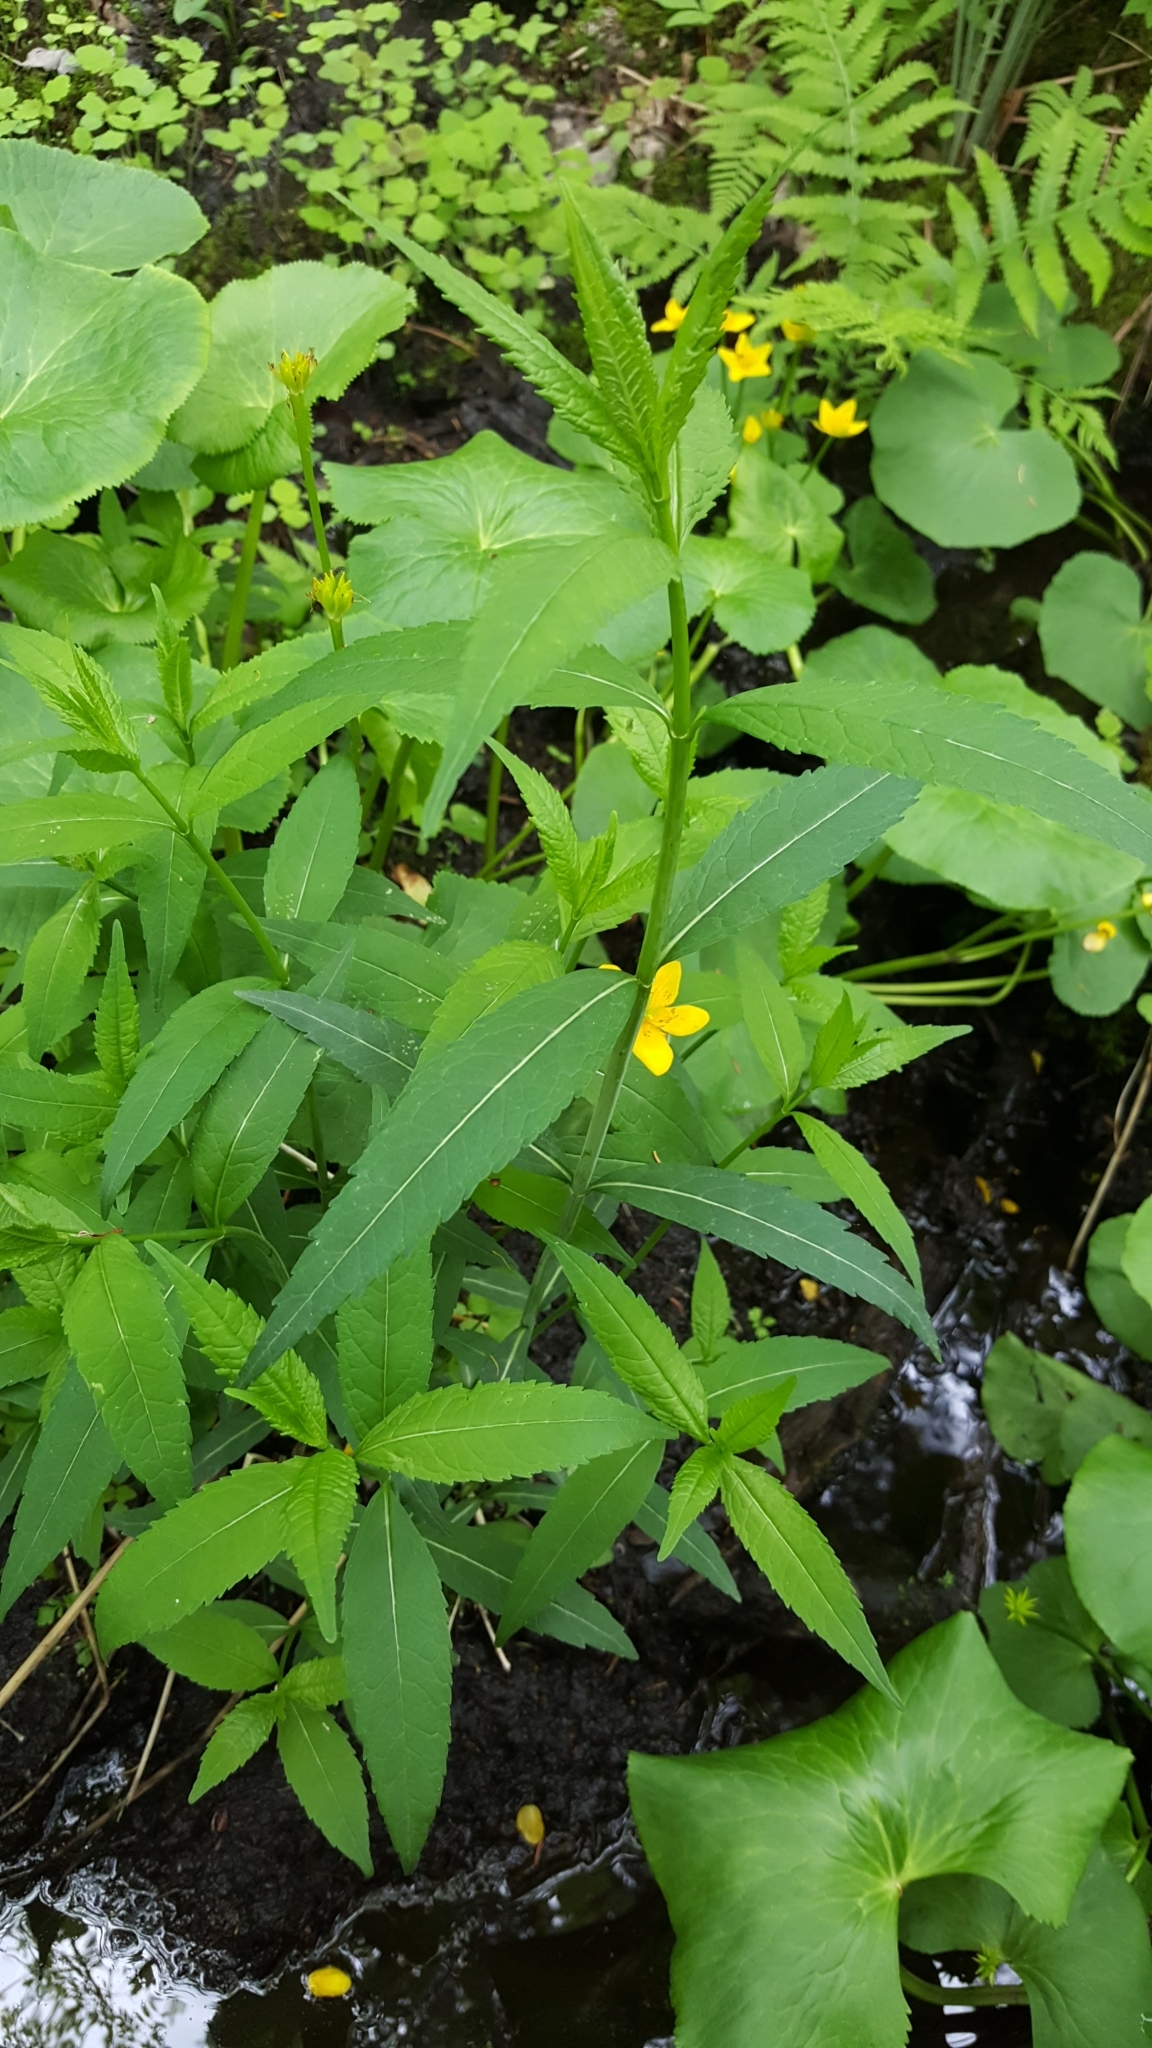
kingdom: Plantae
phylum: Tracheophyta
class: Magnoliopsida
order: Lamiales
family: Plantaginaceae
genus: Chelone
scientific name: Chelone glabra
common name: Snakehead
